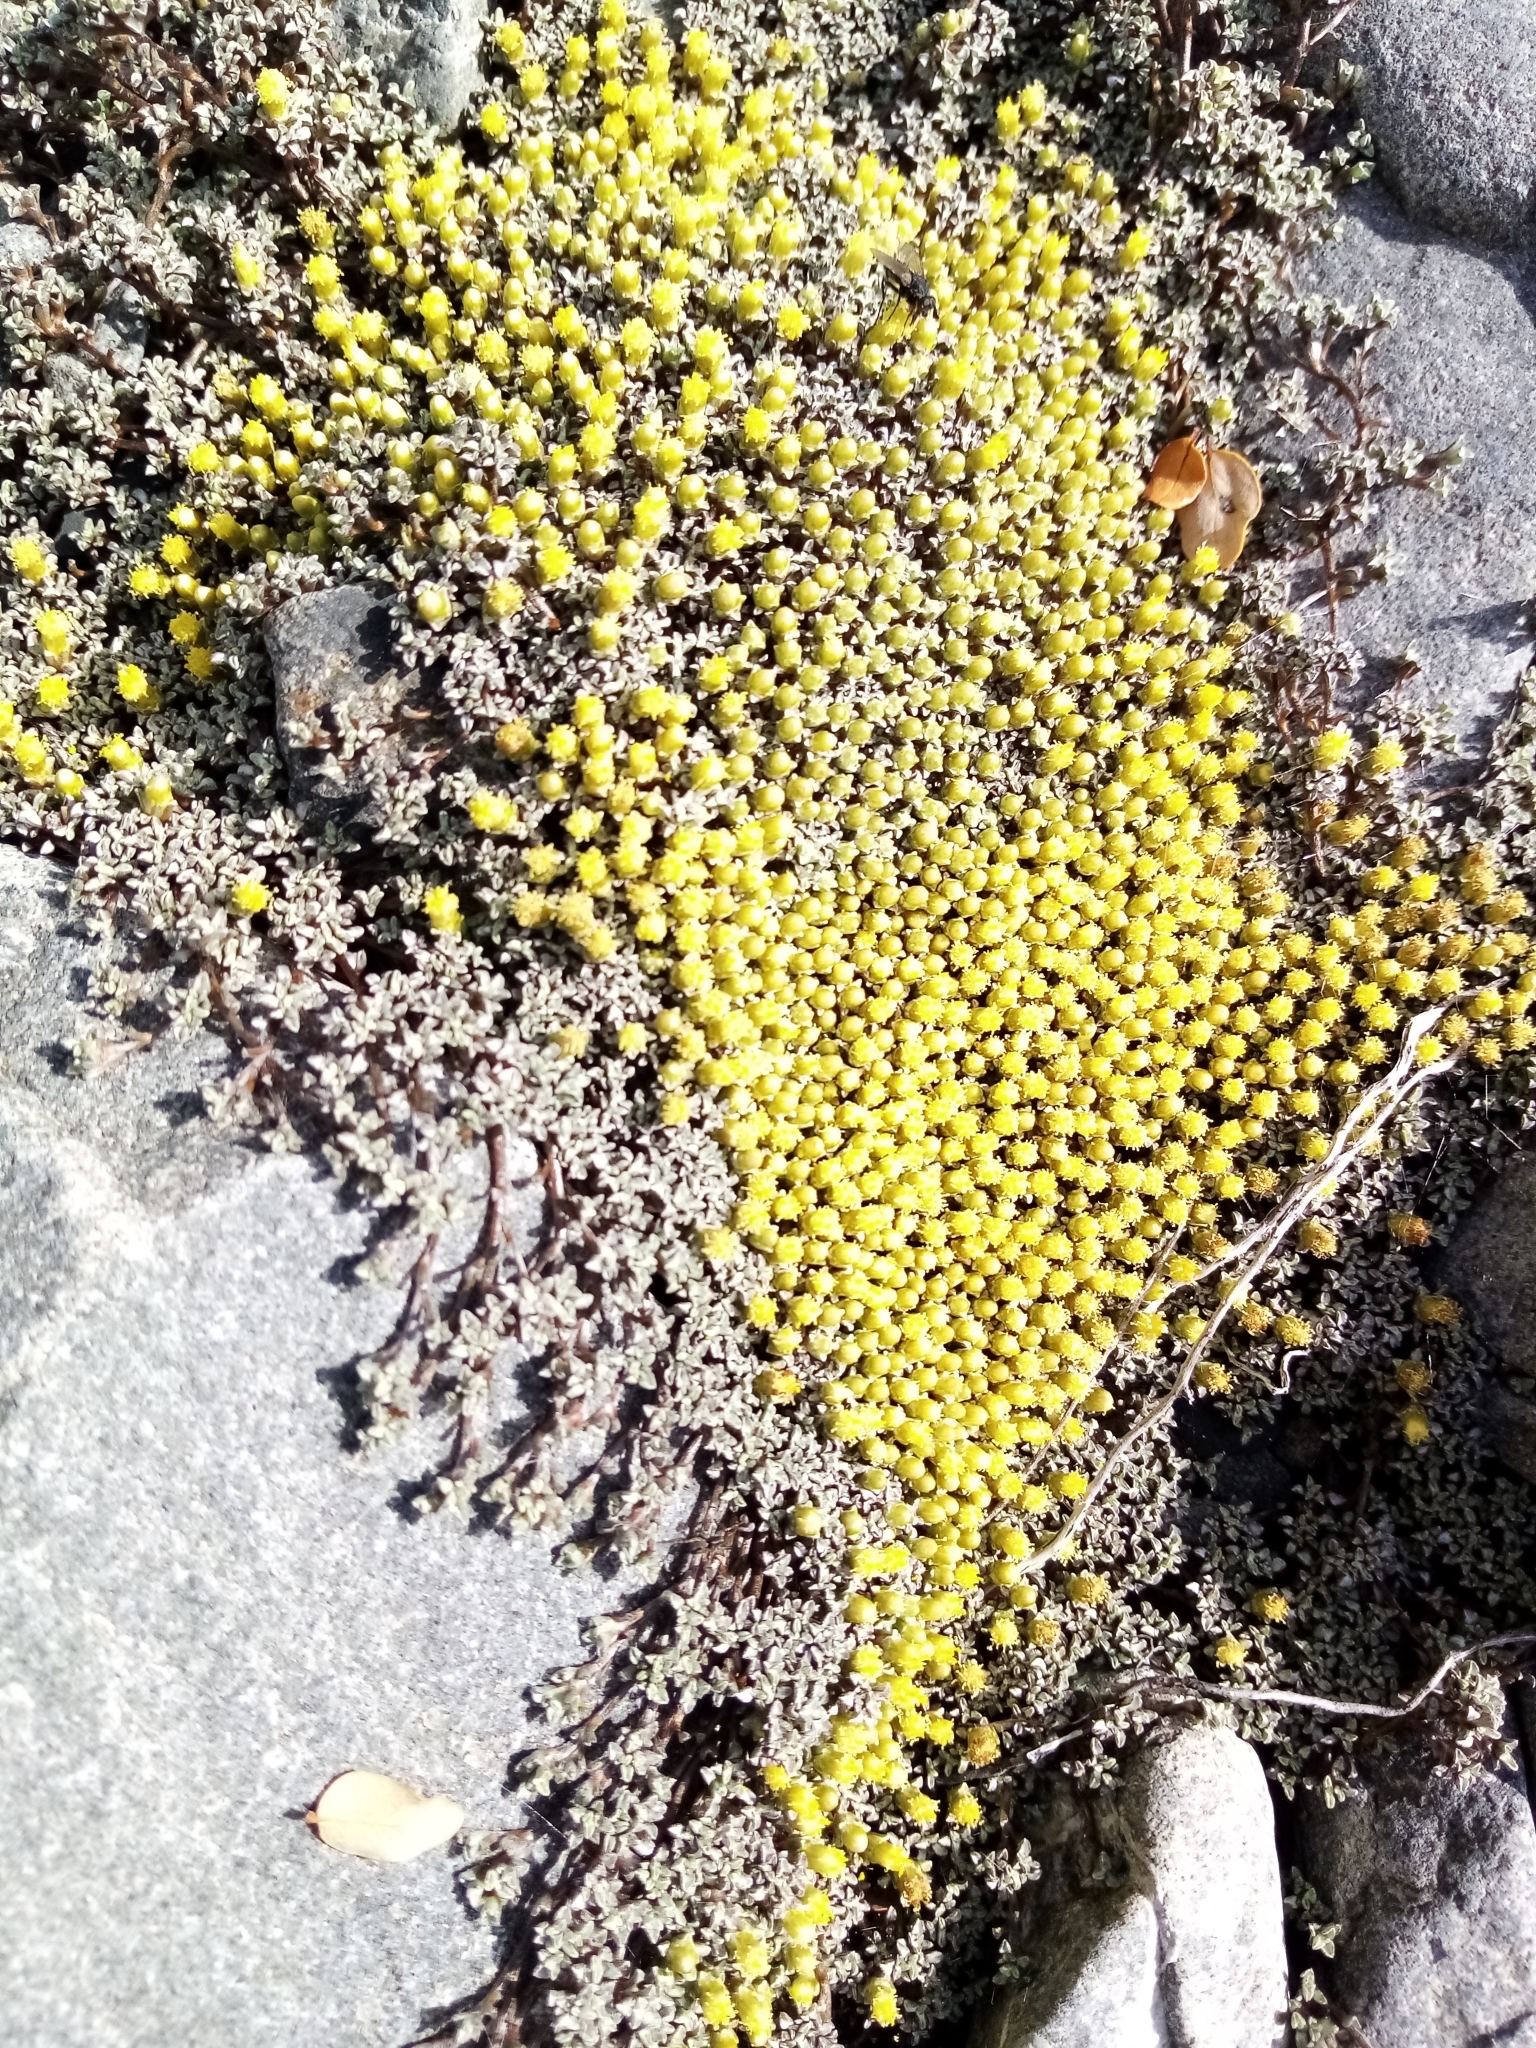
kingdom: Plantae
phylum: Tracheophyta
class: Magnoliopsida
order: Asterales
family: Asteraceae
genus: Raoulia
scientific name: Raoulia australis
